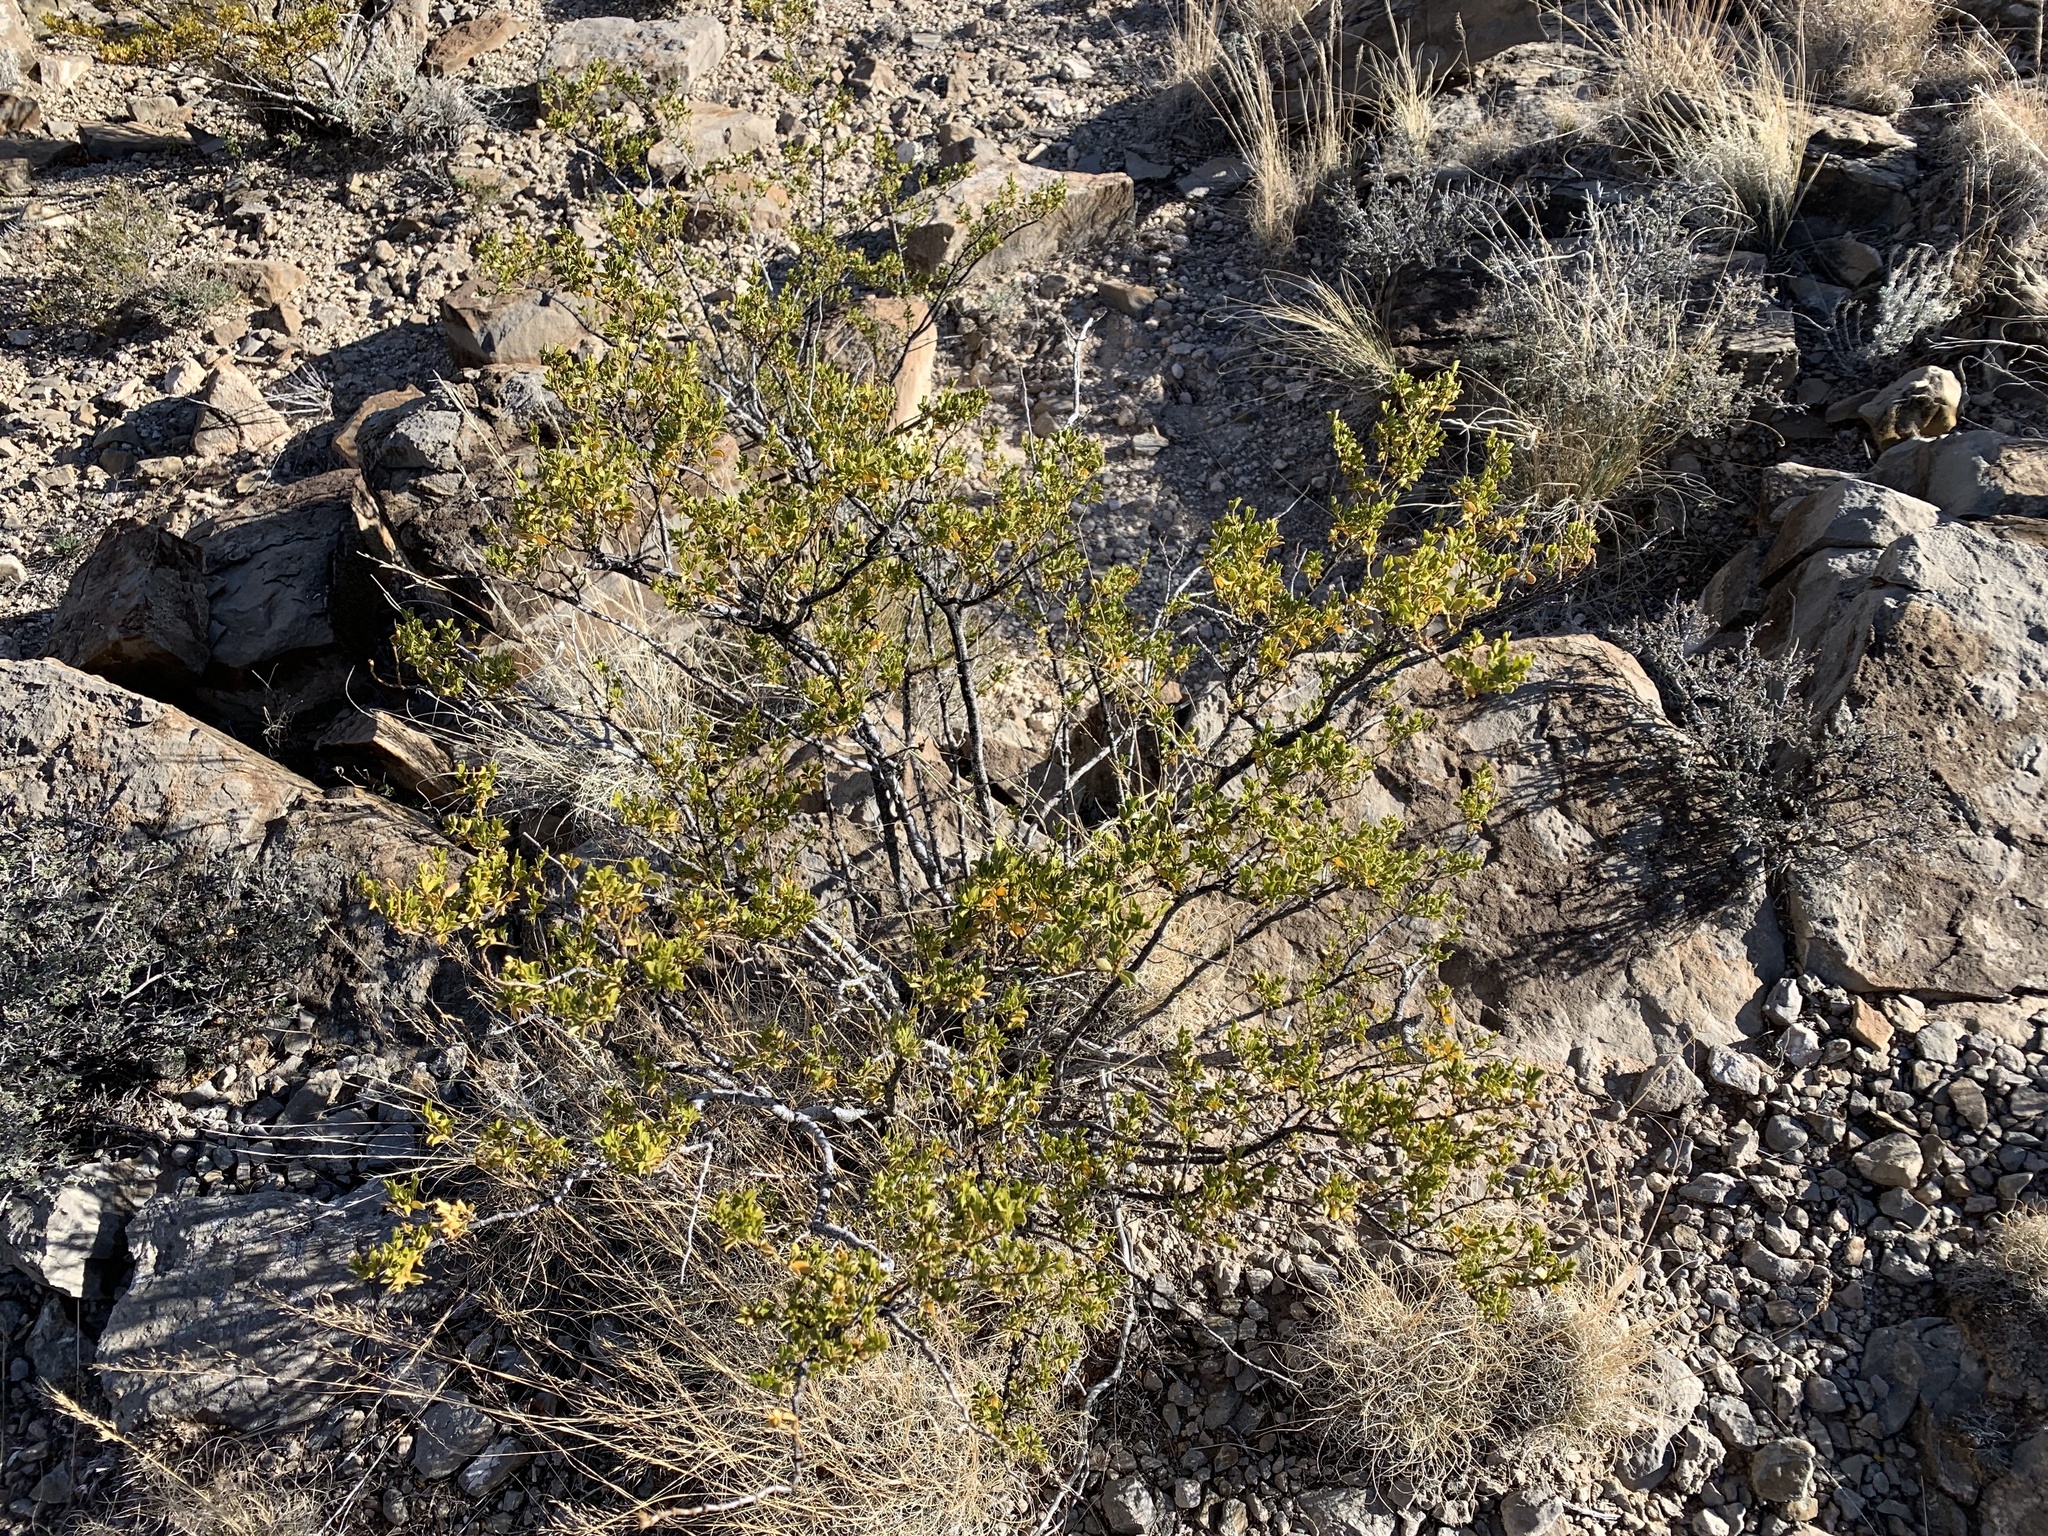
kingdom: Plantae
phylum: Tracheophyta
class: Magnoliopsida
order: Zygophyllales
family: Zygophyllaceae
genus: Larrea
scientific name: Larrea tridentata
